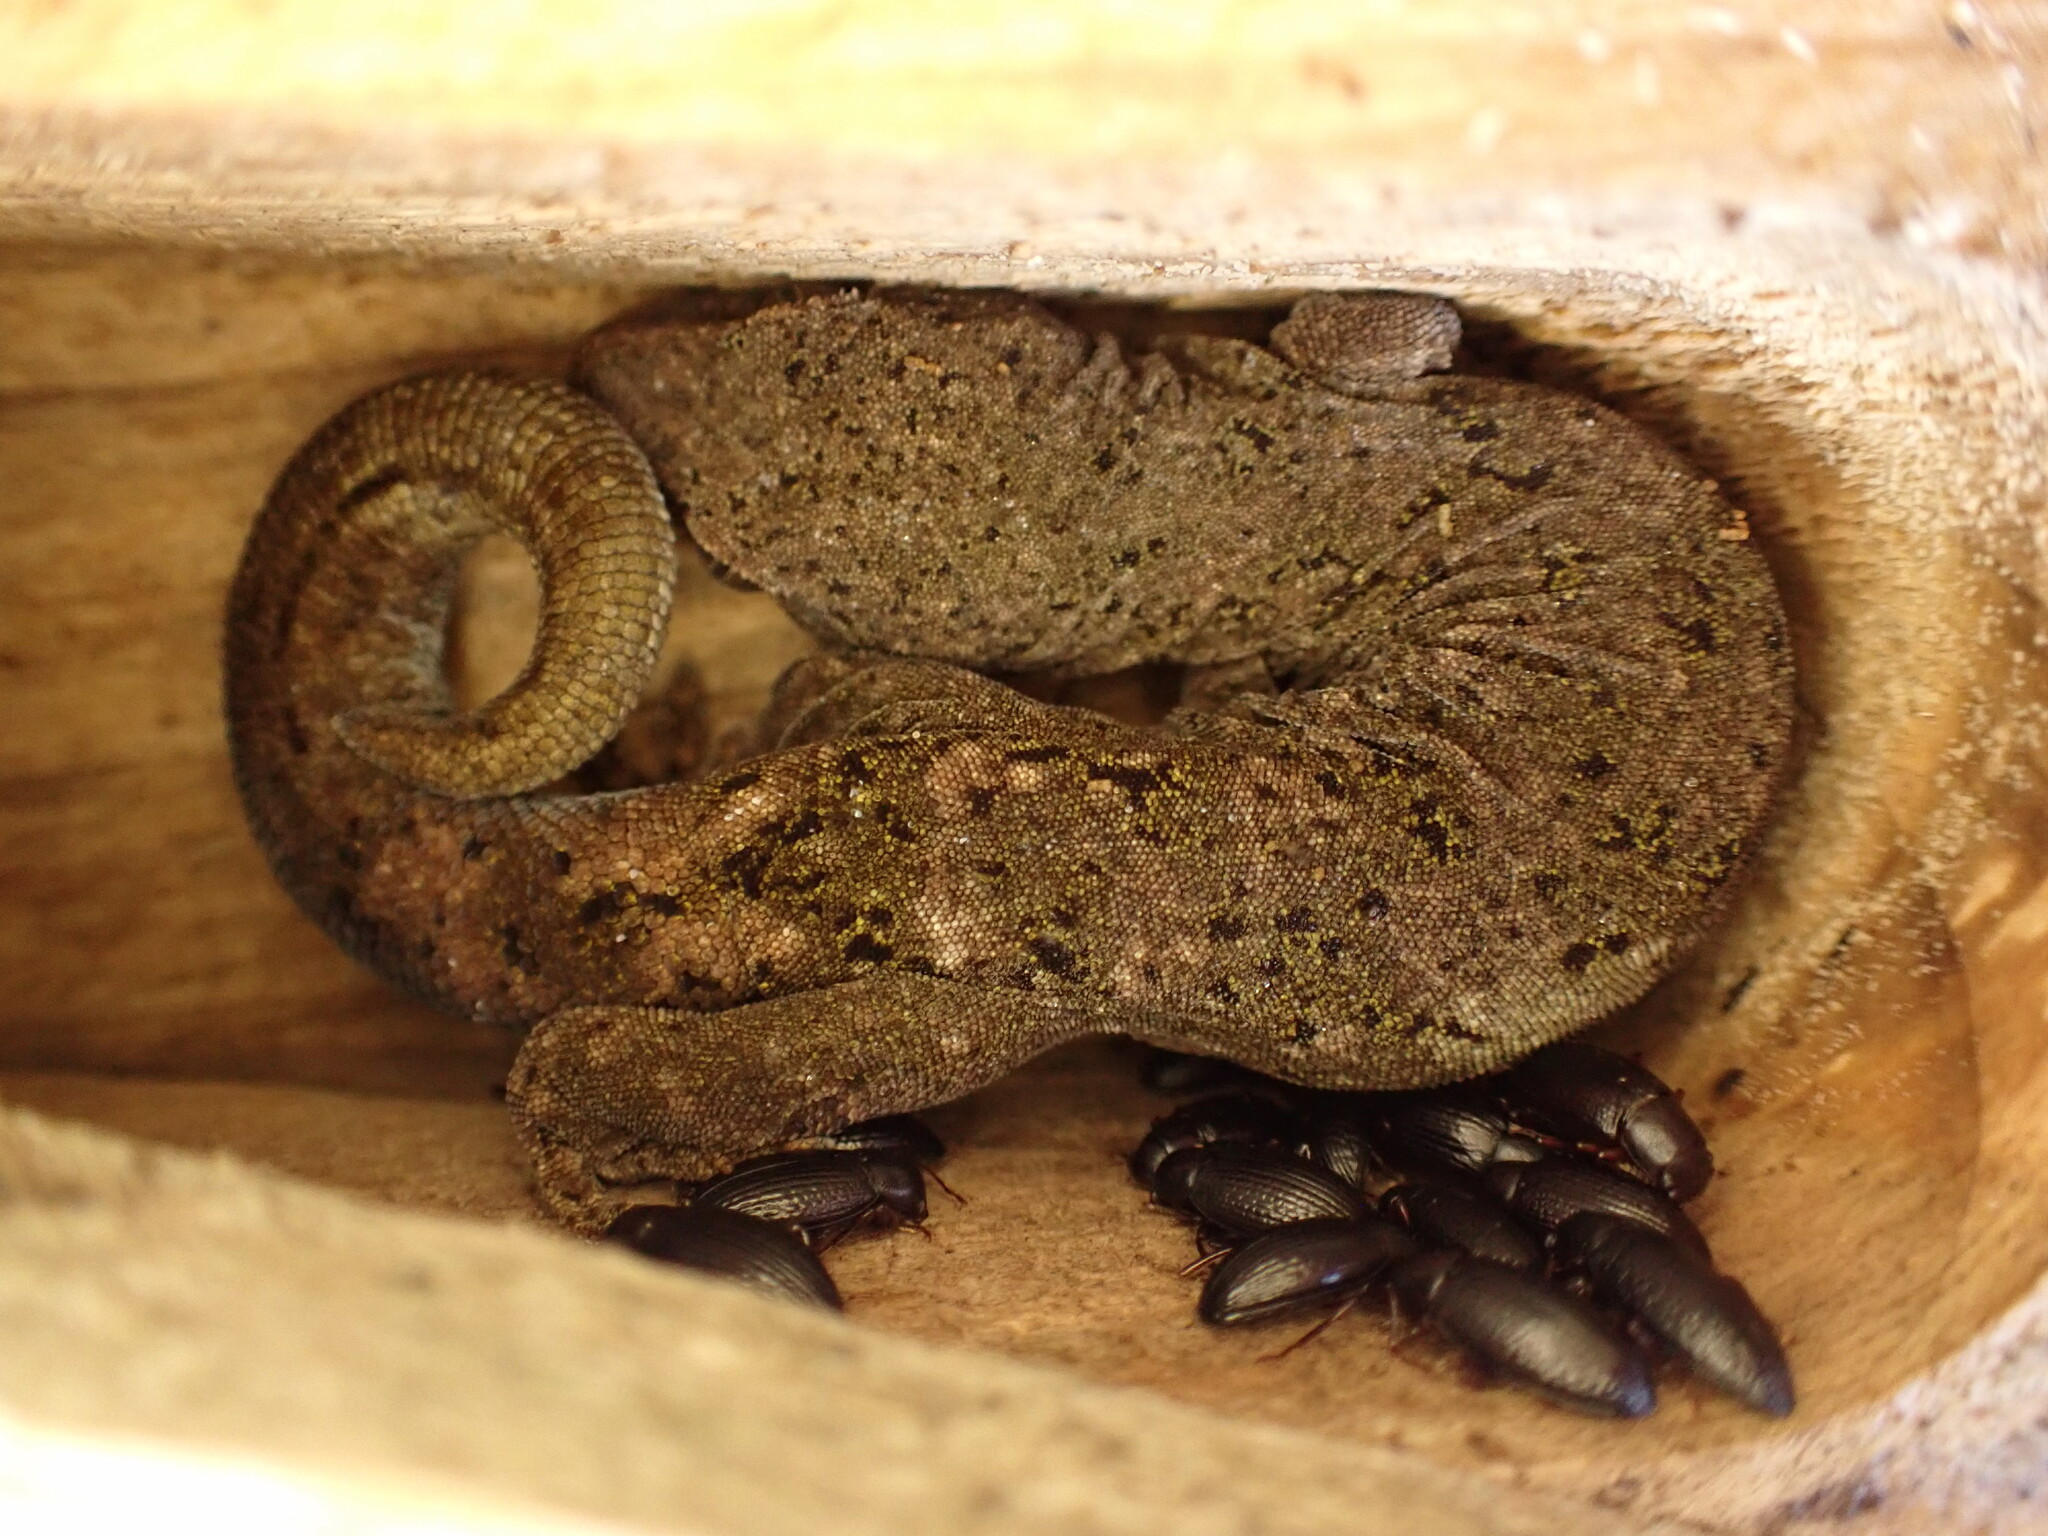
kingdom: Animalia
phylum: Chordata
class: Squamata
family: Diplodactylidae
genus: Woodworthia
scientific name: Woodworthia brunnea
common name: Canterbury gecko
